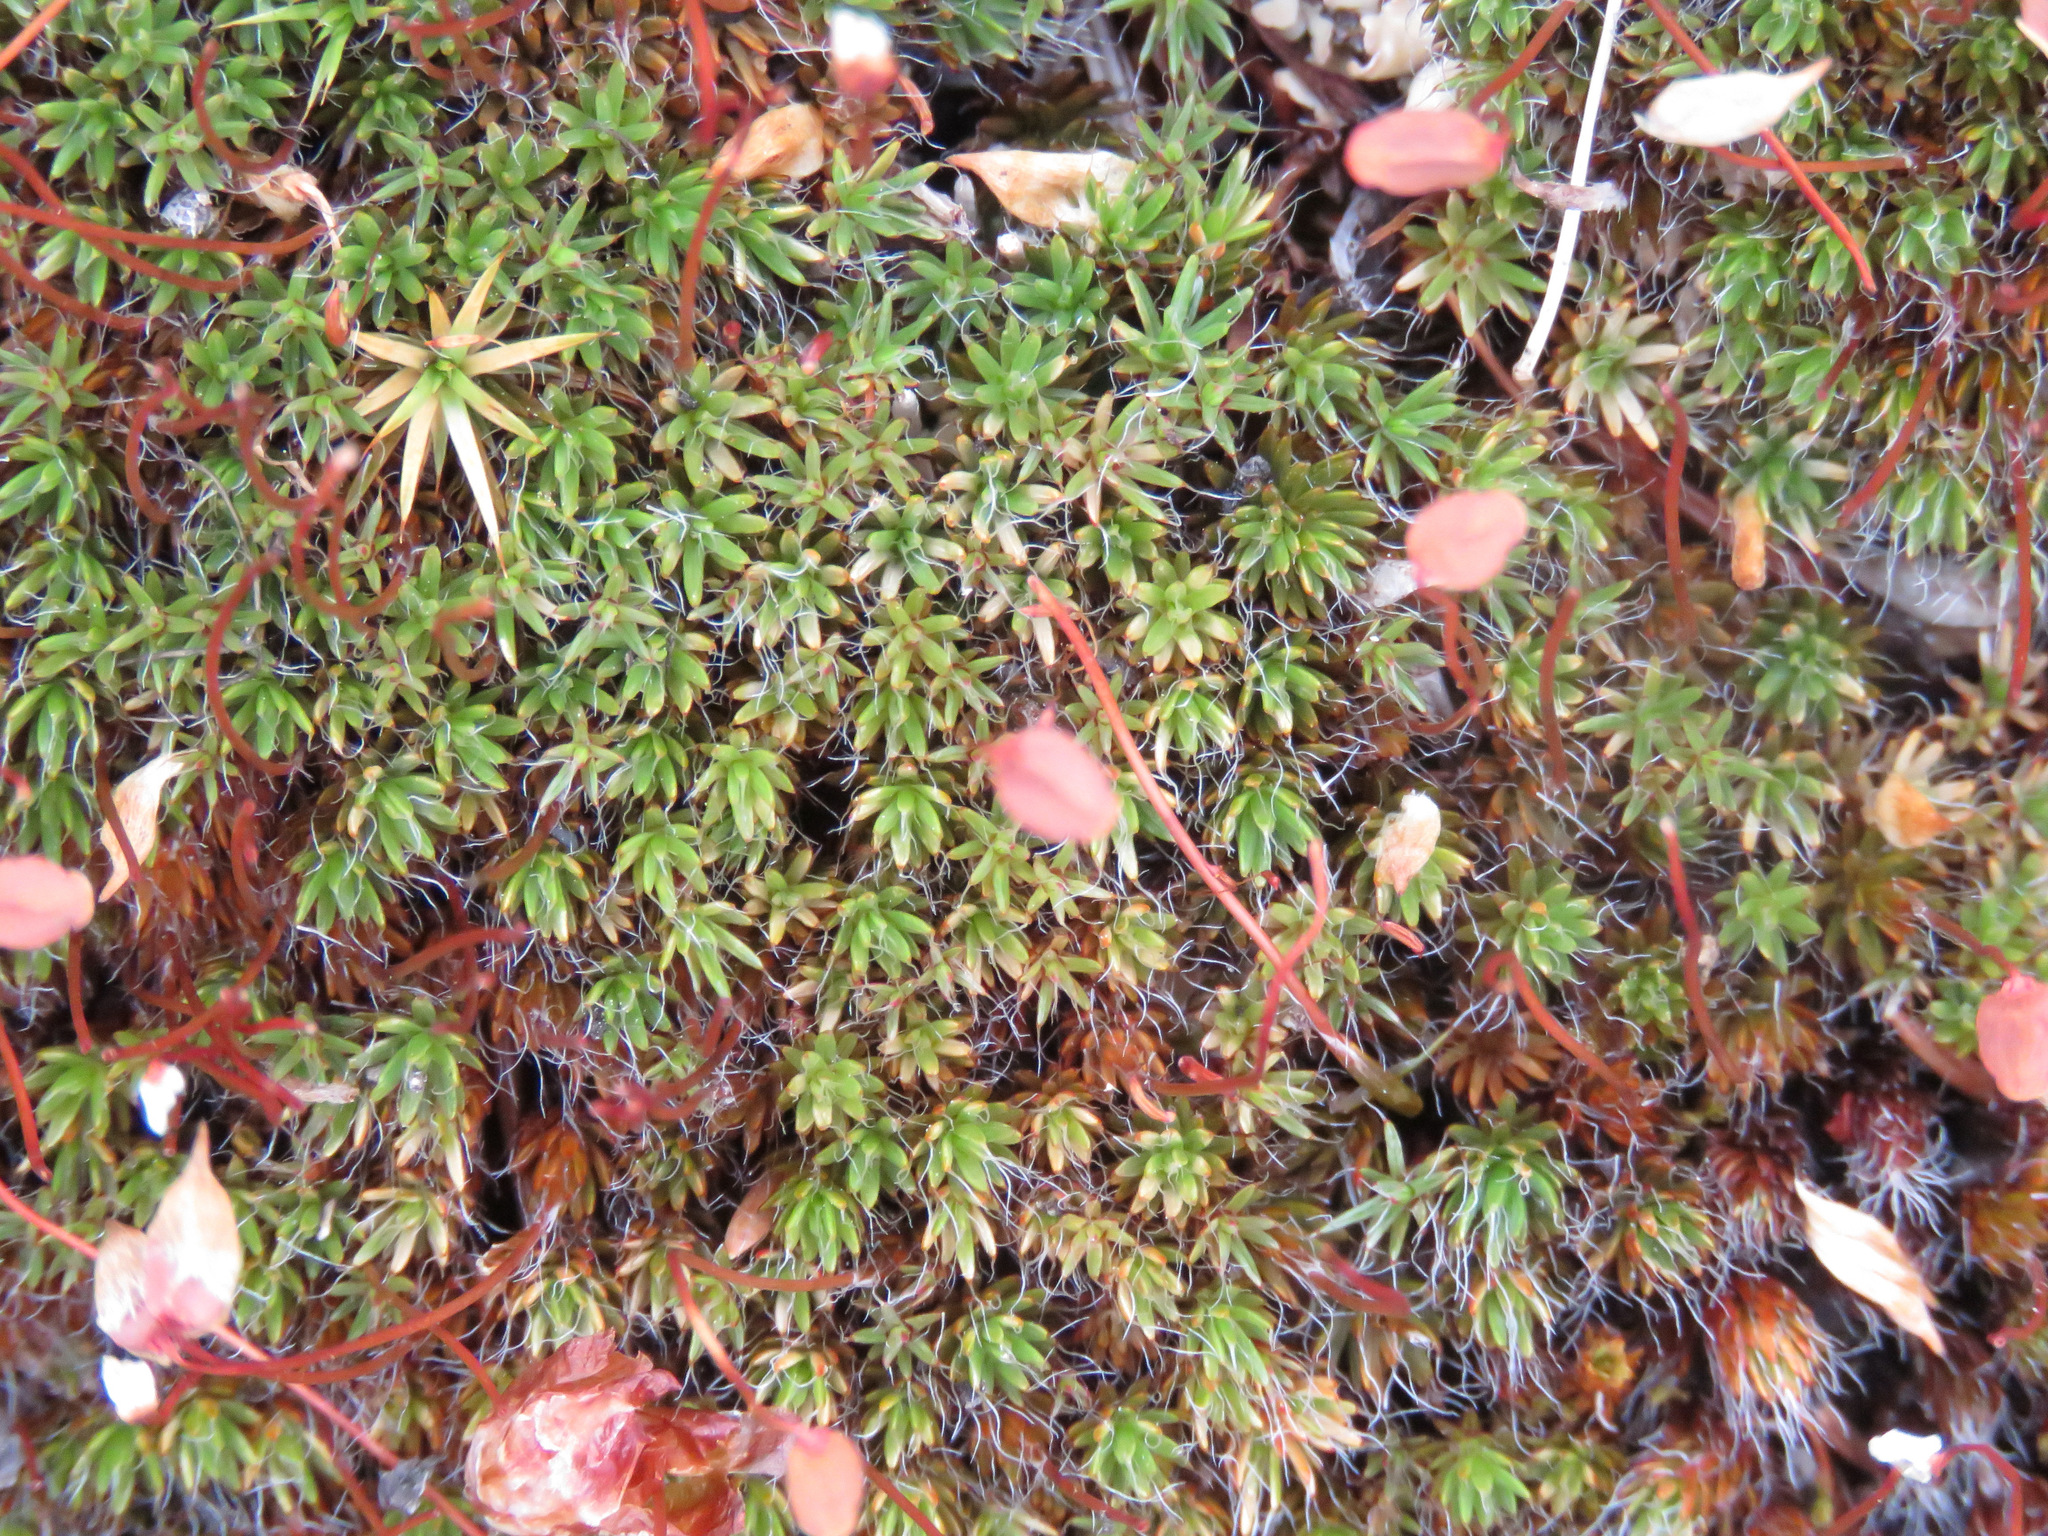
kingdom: Plantae
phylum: Bryophyta
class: Polytrichopsida
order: Polytrichales
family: Polytrichaceae
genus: Polytrichum
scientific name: Polytrichum piliferum
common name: Bristly haircap
